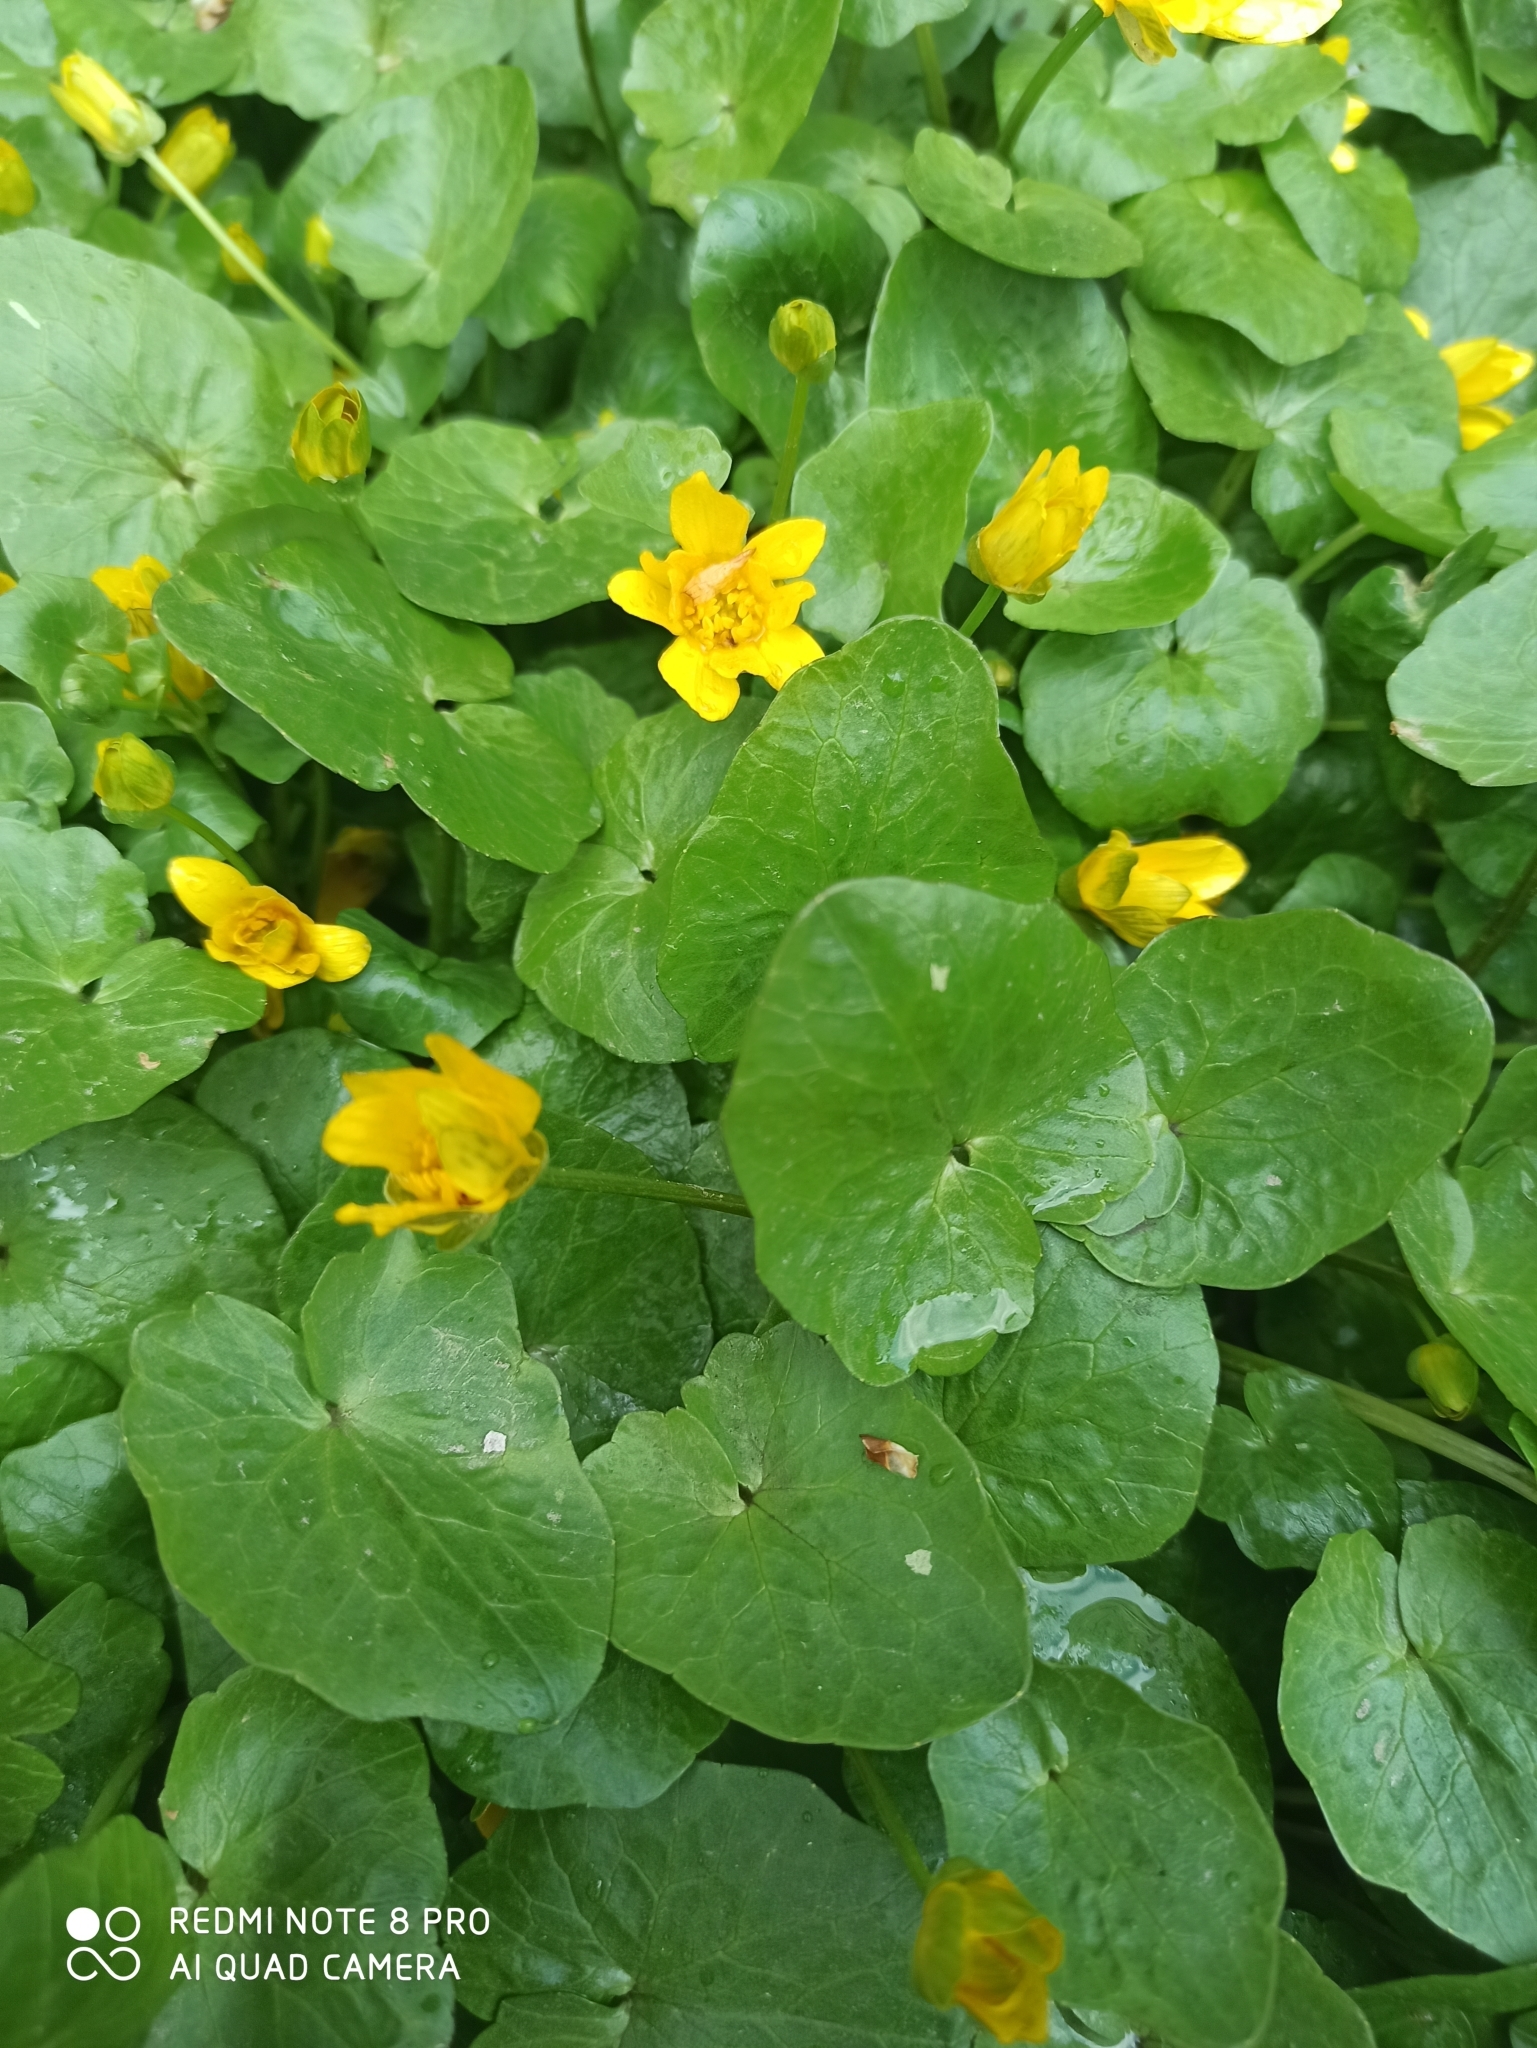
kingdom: Plantae
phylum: Tracheophyta
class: Magnoliopsida
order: Ranunculales
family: Ranunculaceae
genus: Ficaria
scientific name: Ficaria verna
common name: Lesser celandine
